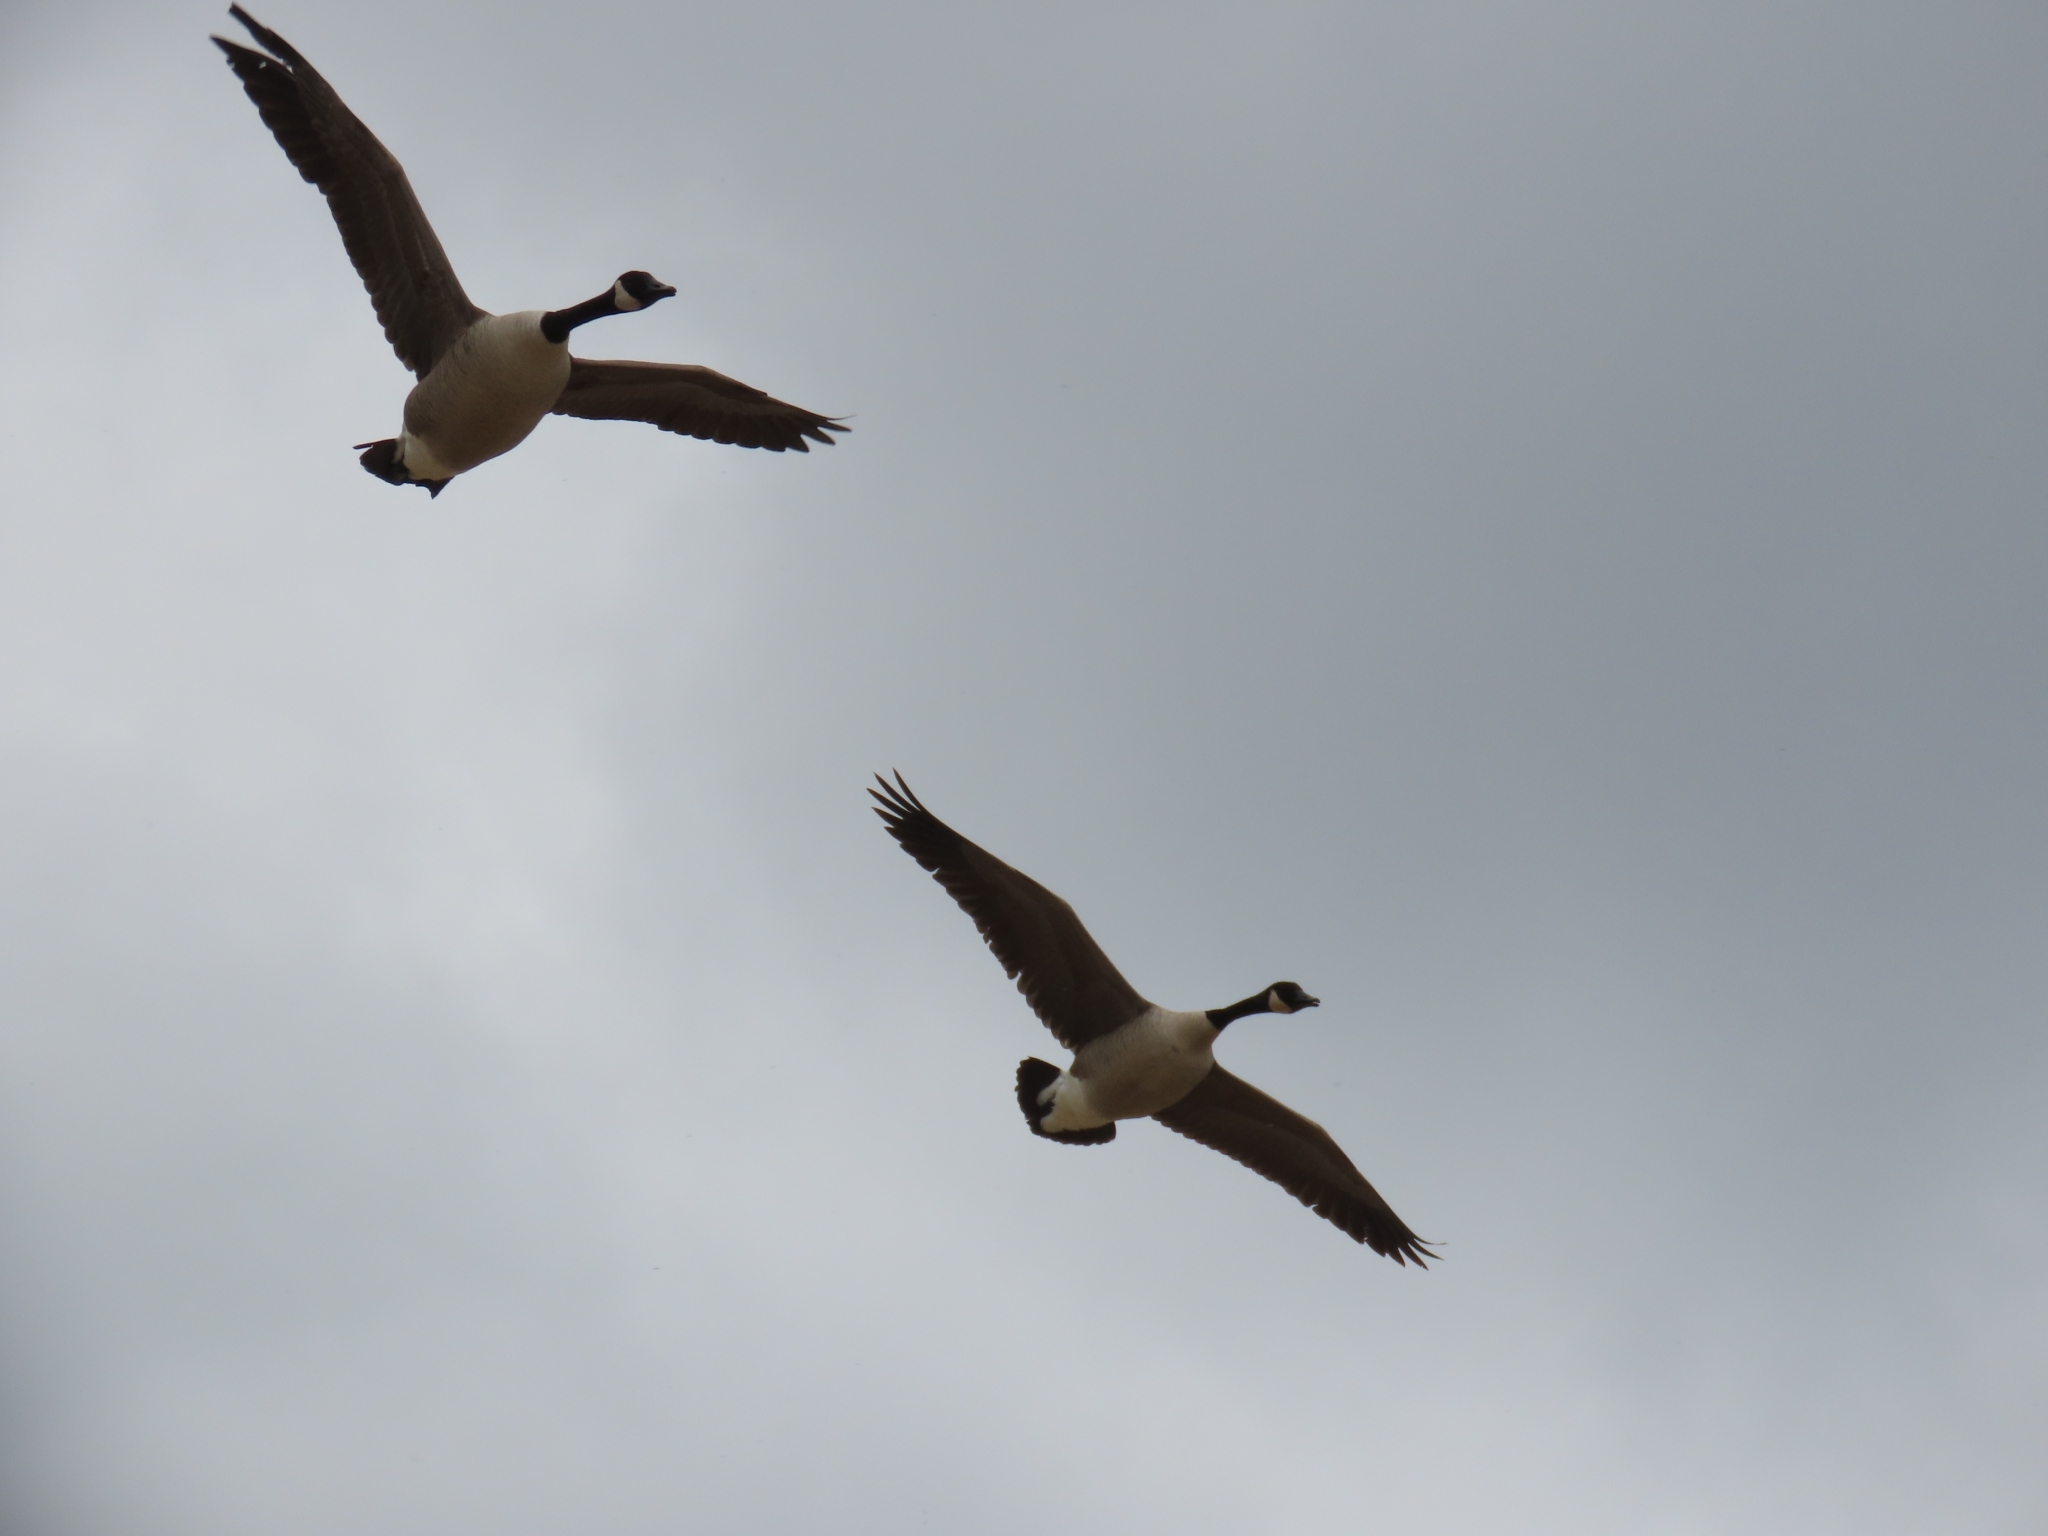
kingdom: Animalia
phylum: Chordata
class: Aves
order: Anseriformes
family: Anatidae
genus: Branta
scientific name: Branta canadensis
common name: Canada goose
